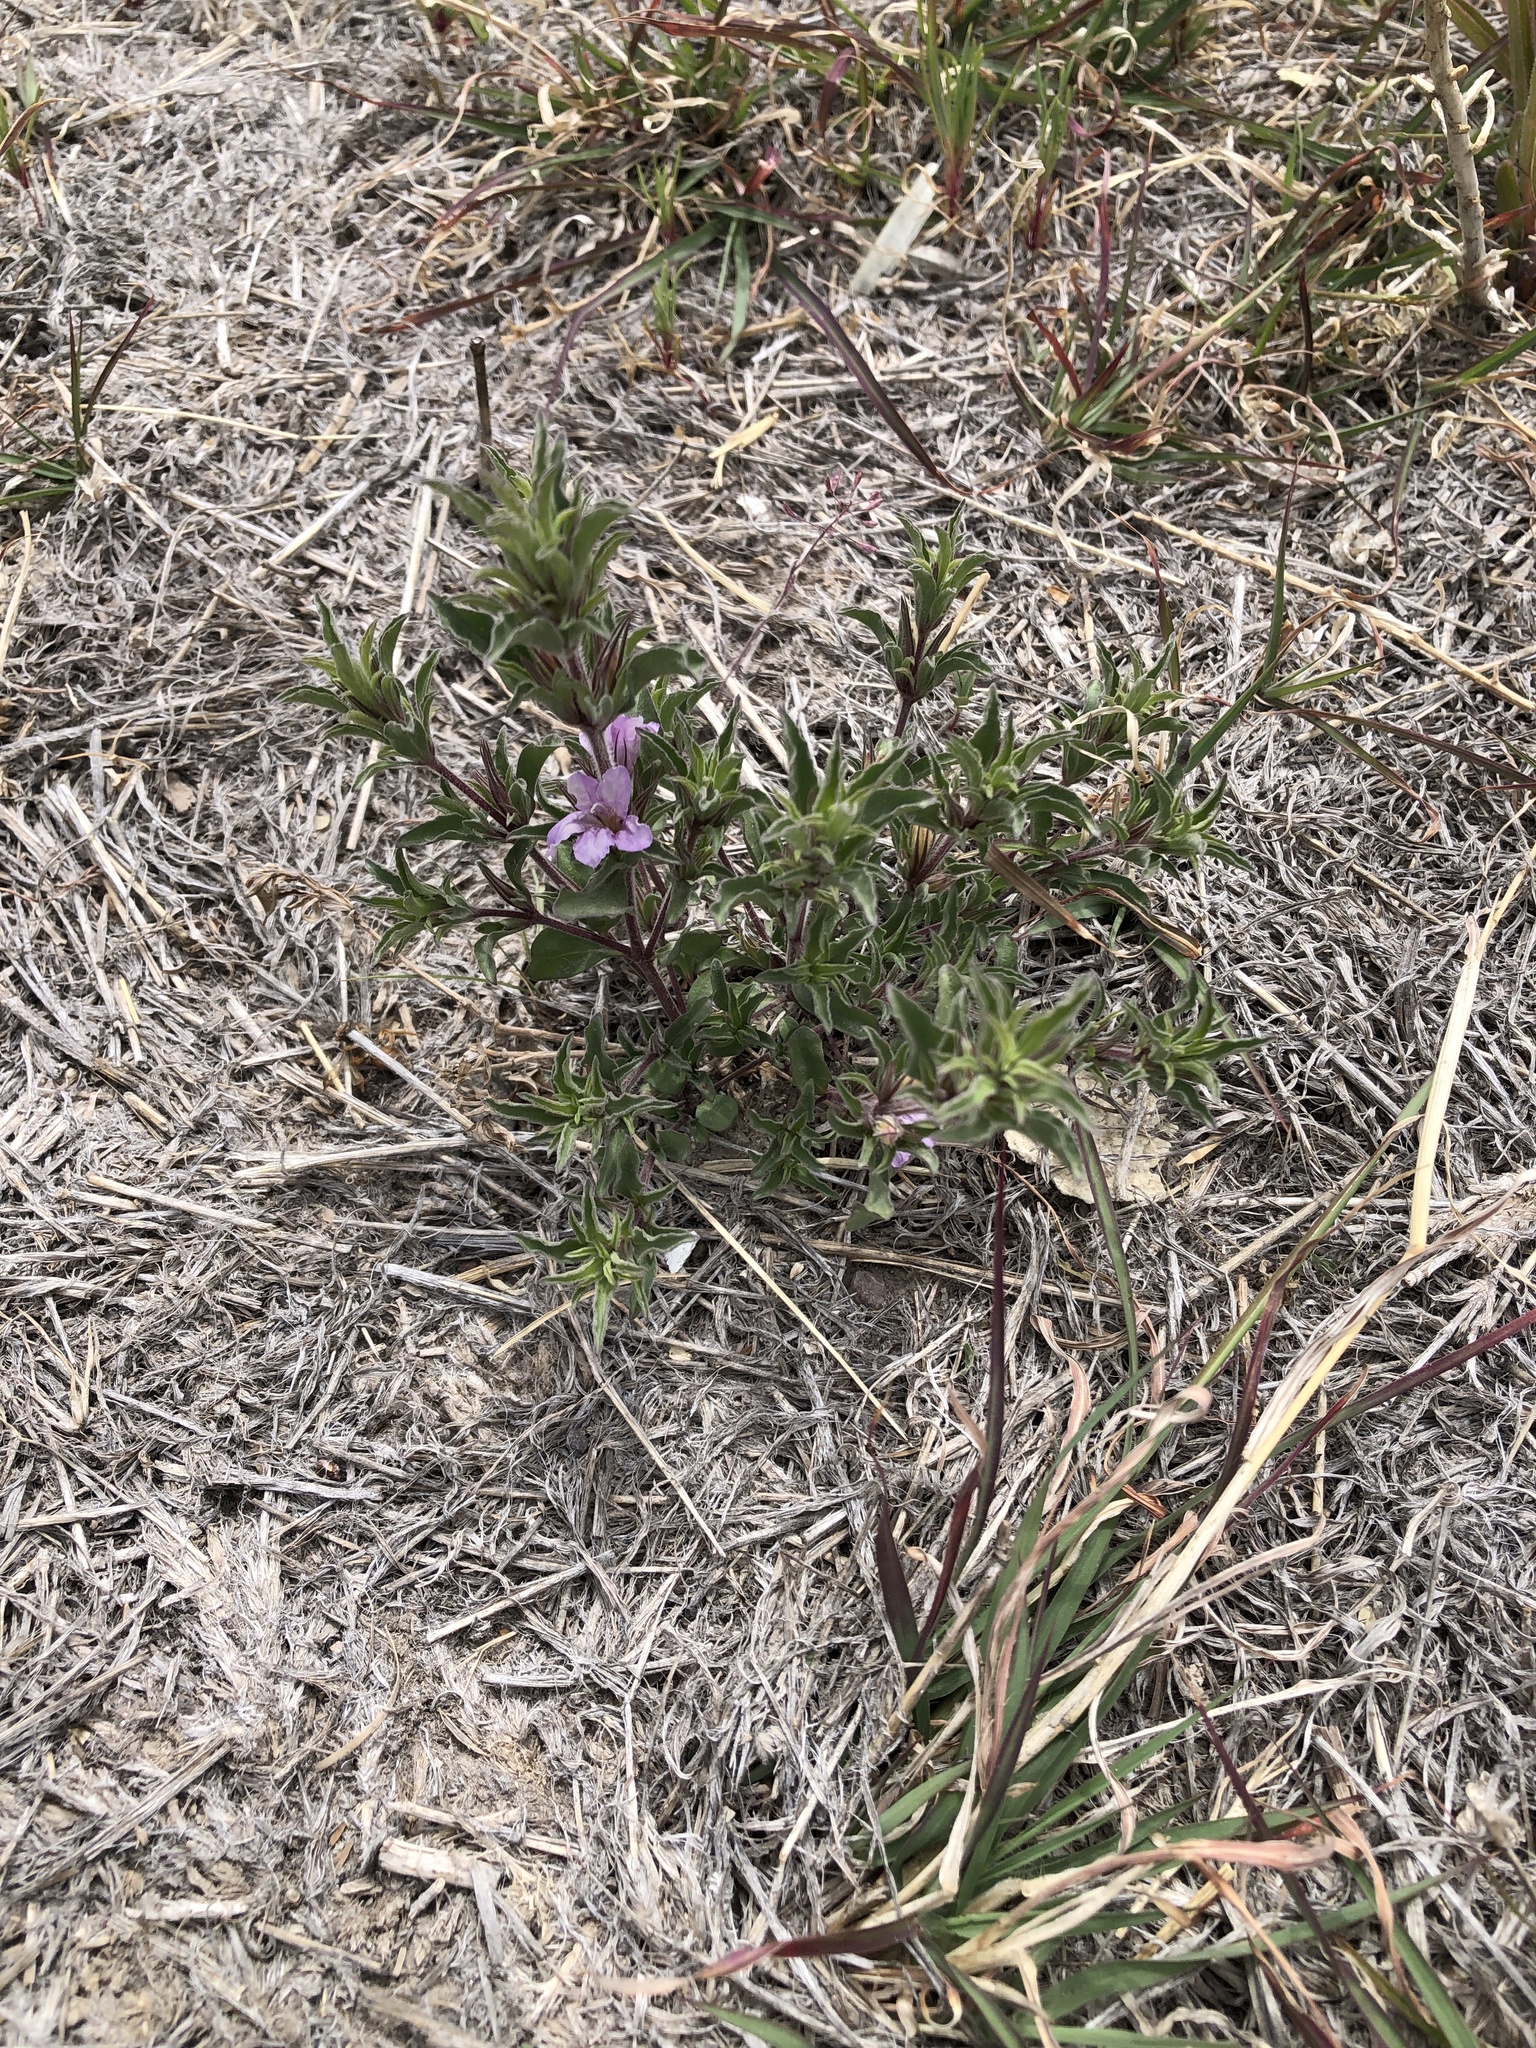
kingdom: Plantae
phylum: Tracheophyta
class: Magnoliopsida
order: Lamiales
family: Acanthaceae
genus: Dyschoriste
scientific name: Dyschoriste linearis
